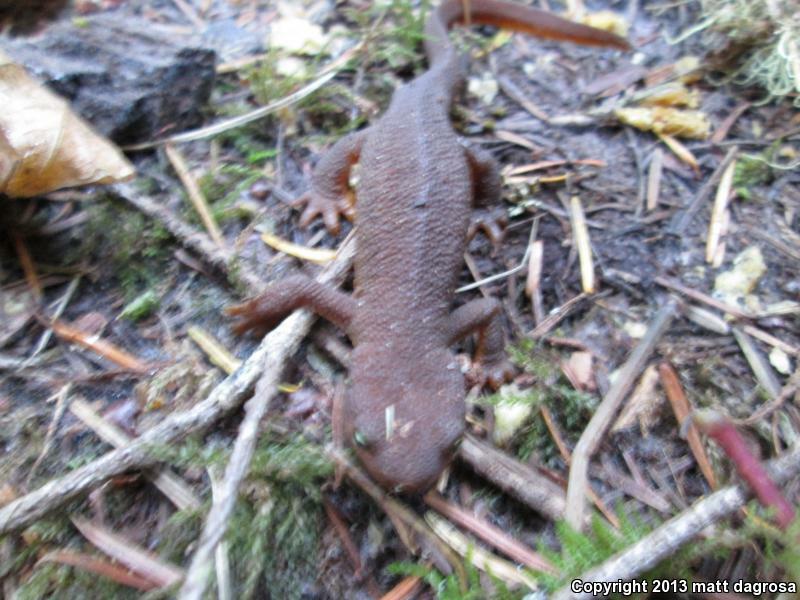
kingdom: Animalia
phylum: Chordata
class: Amphibia
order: Caudata
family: Salamandridae
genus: Taricha
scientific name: Taricha granulosa
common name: Roughskin newt
